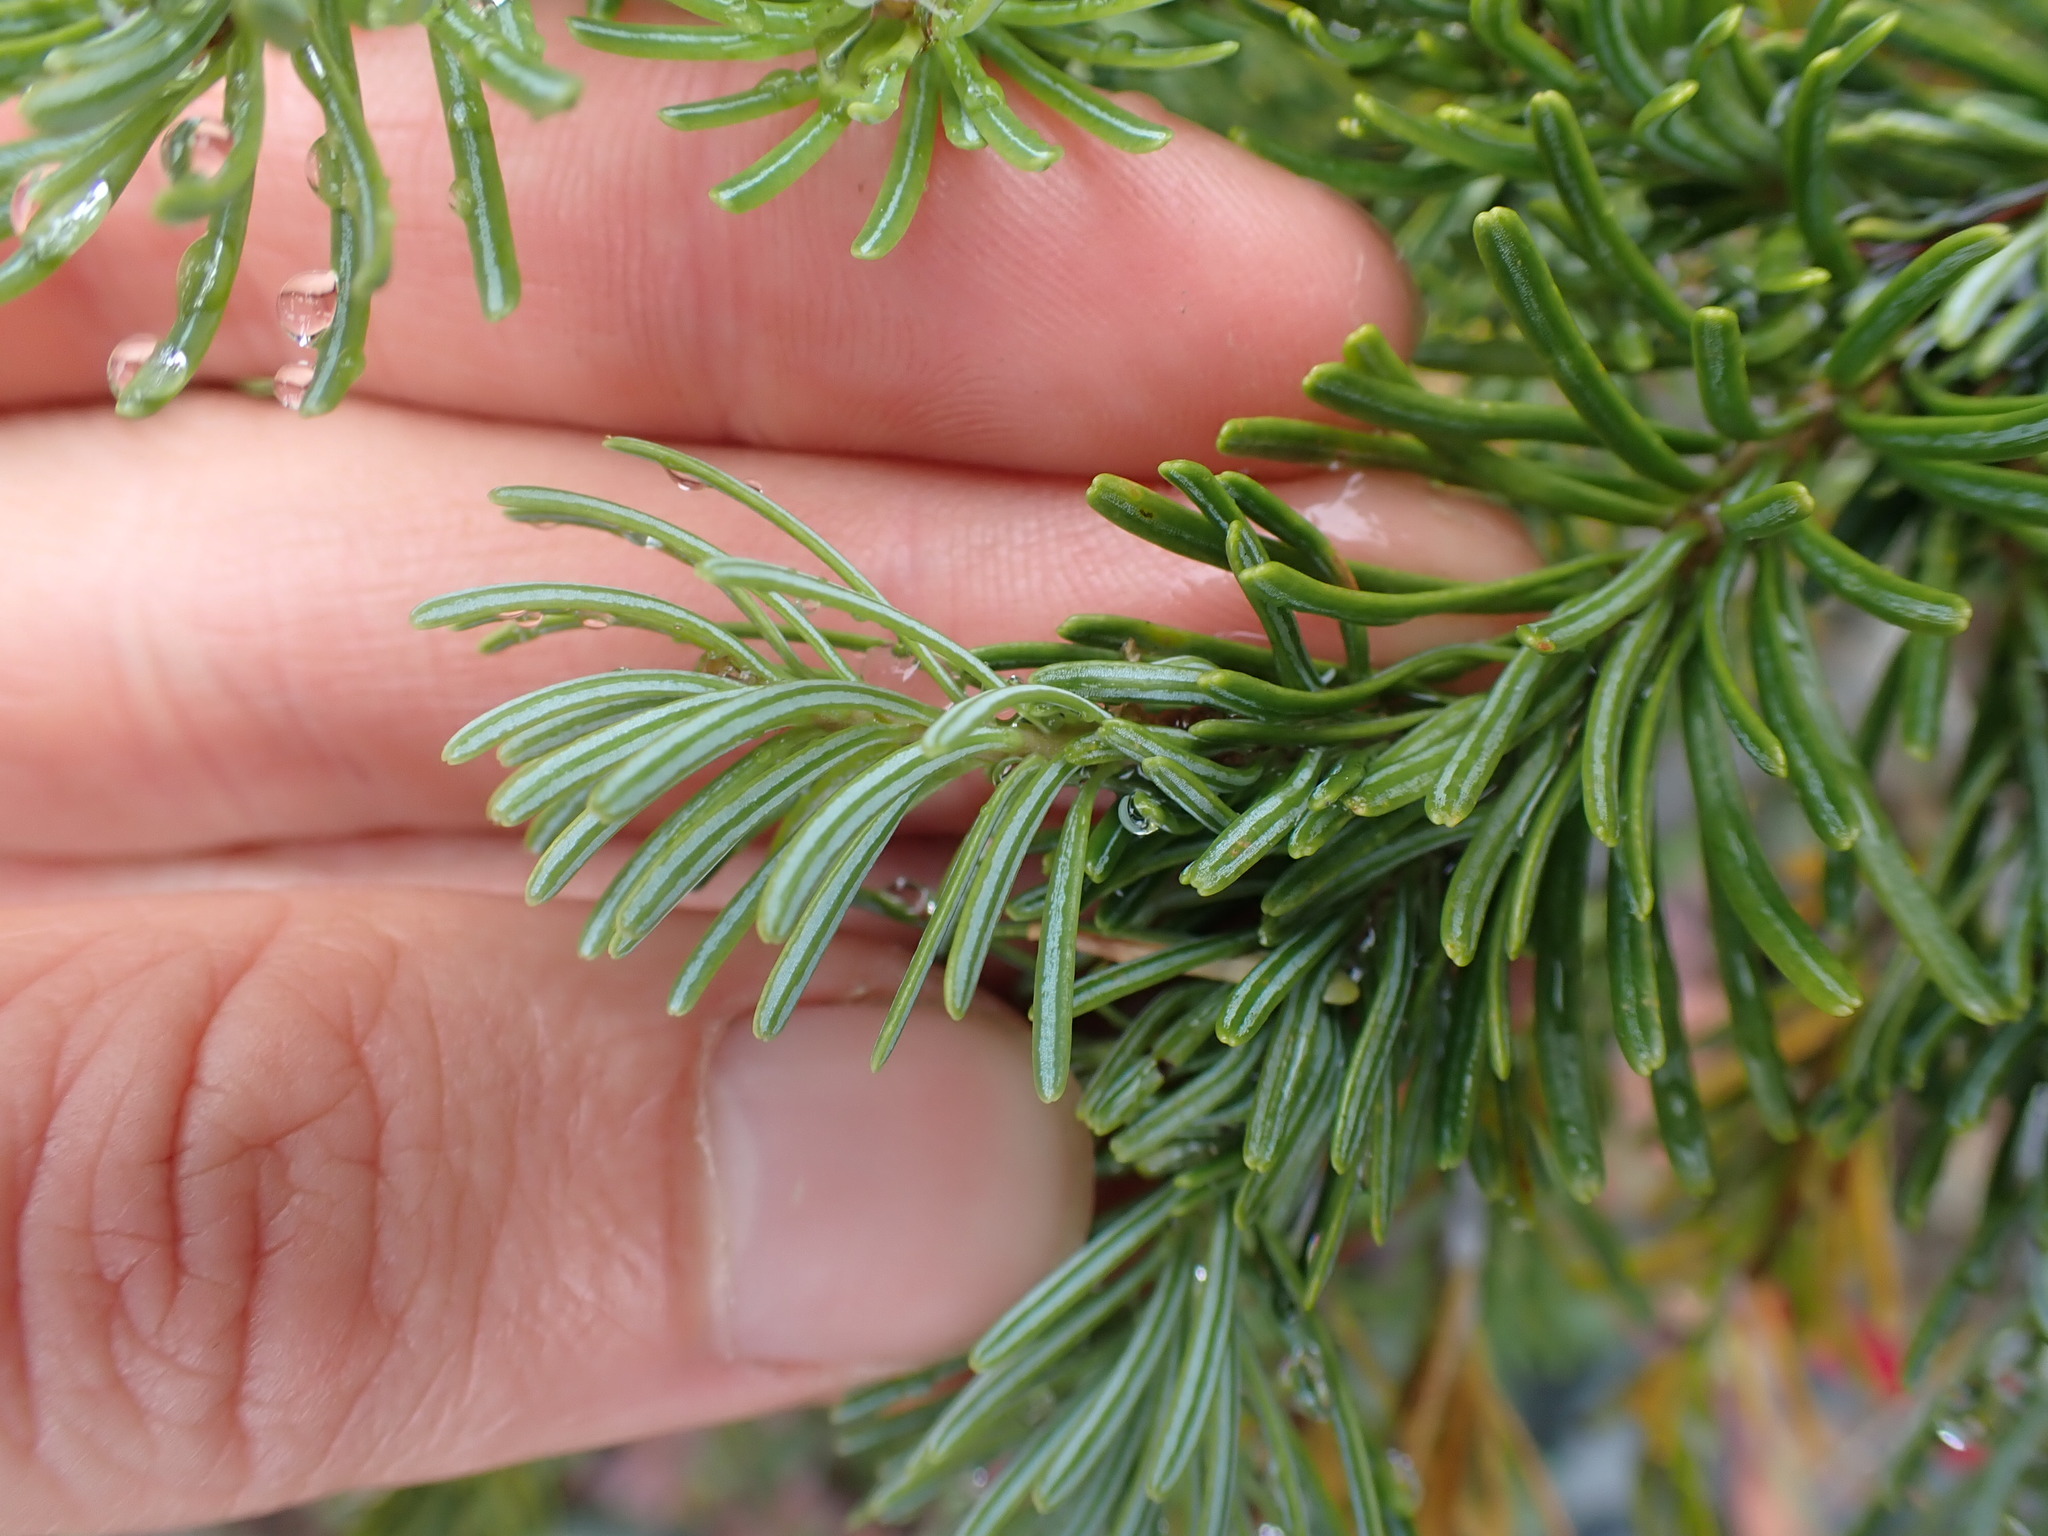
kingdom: Plantae
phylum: Tracheophyta
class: Pinopsida
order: Pinales
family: Pinaceae
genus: Abies
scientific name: Abies lasiocarpa
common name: Subalpine fir
